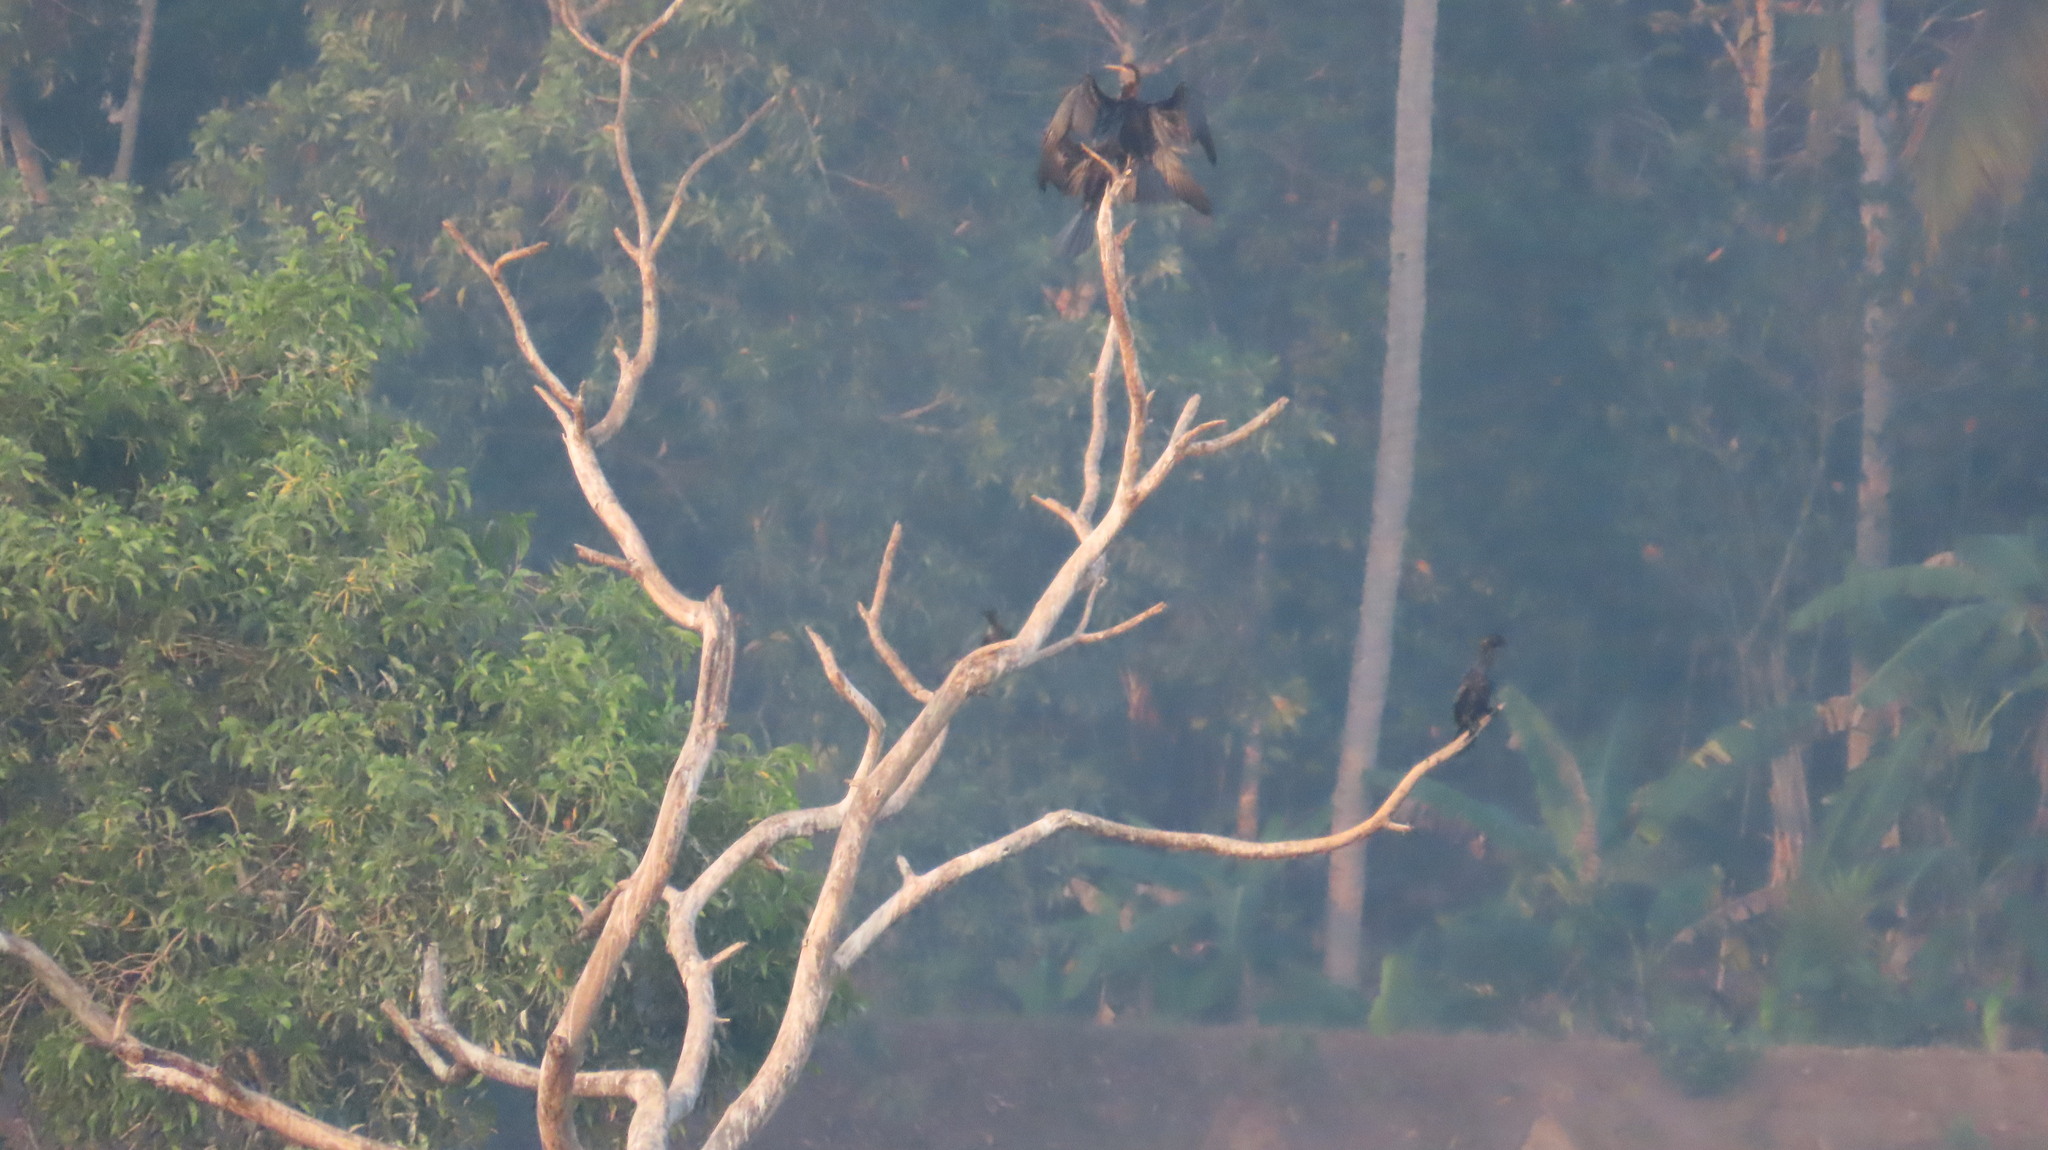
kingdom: Animalia
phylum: Chordata
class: Aves
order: Suliformes
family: Anhingidae
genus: Anhinga
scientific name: Anhinga melanogaster
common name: Oriental darter
